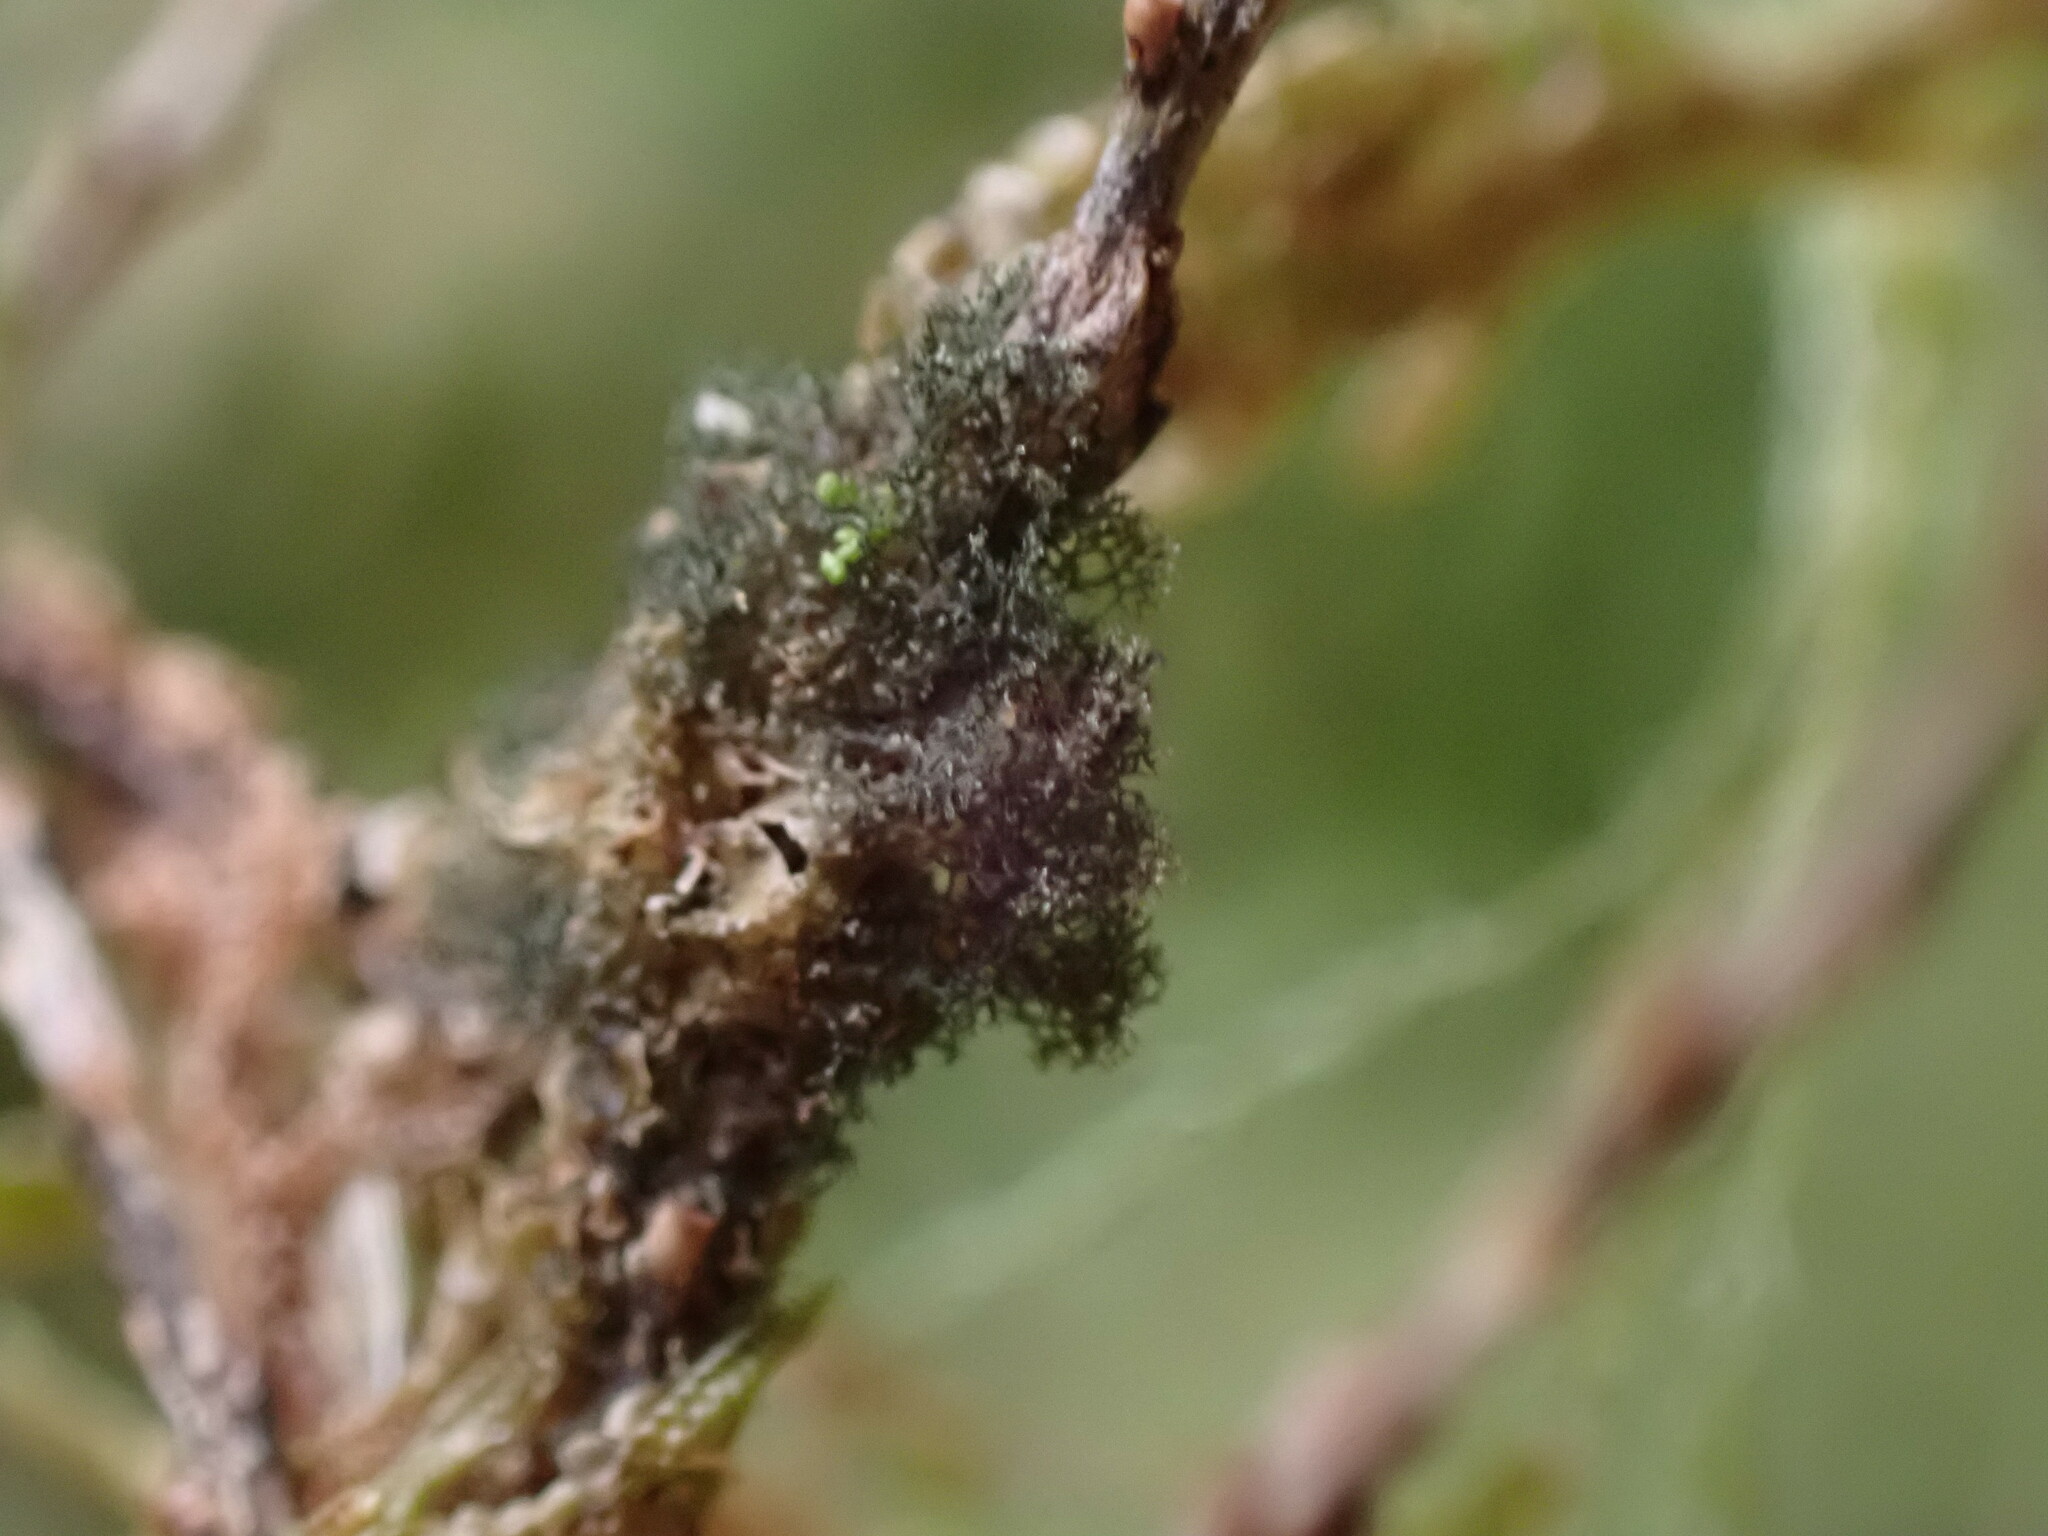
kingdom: Fungi
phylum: Ascomycota
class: Lecanoromycetes
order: Peltigerales
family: Pannariaceae
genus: Leptogidium
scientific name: Leptogidium dendriscum
